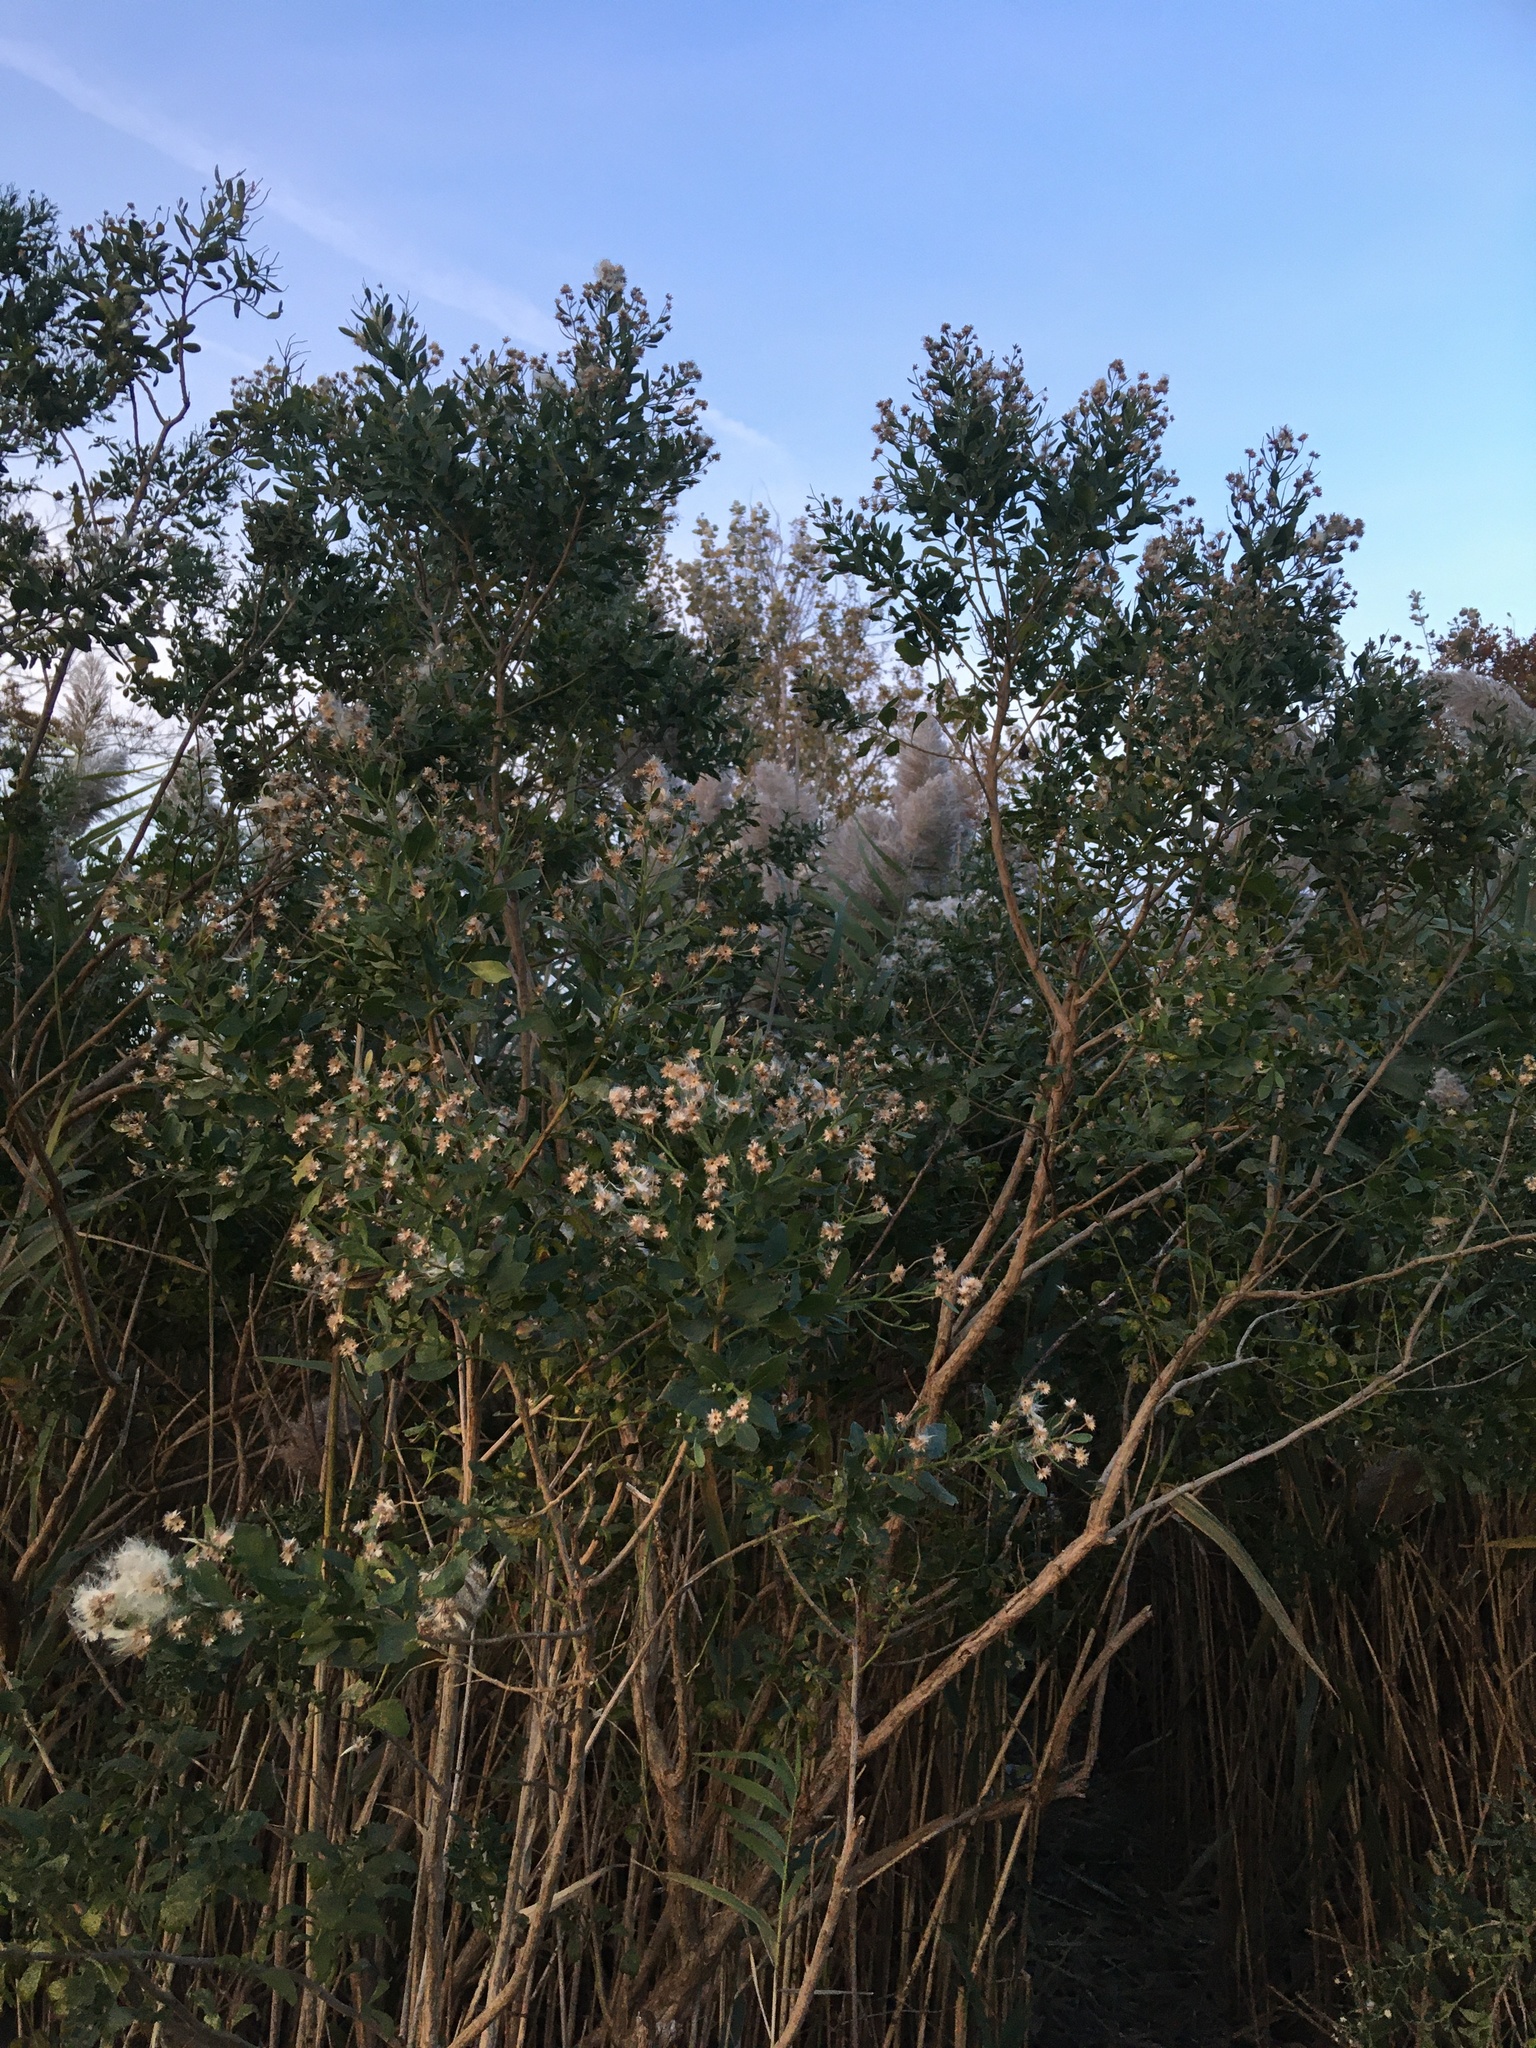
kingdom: Plantae
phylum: Tracheophyta
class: Magnoliopsida
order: Asterales
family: Asteraceae
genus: Baccharis
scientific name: Baccharis halimifolia
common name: Eastern baccharis
